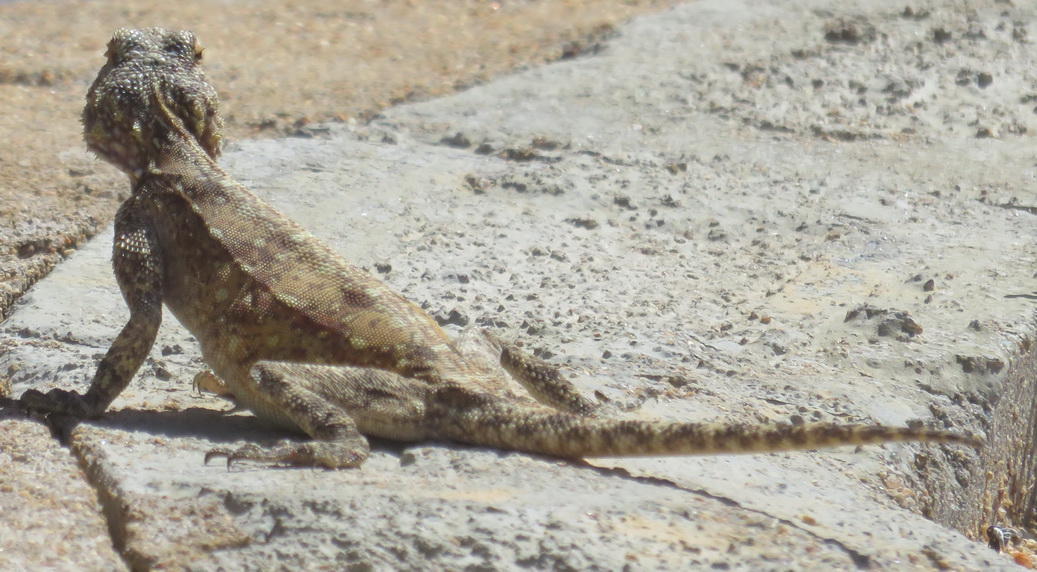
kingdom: Animalia
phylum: Chordata
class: Squamata
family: Agamidae
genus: Agama
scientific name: Agama atra
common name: Southern african rock agama
